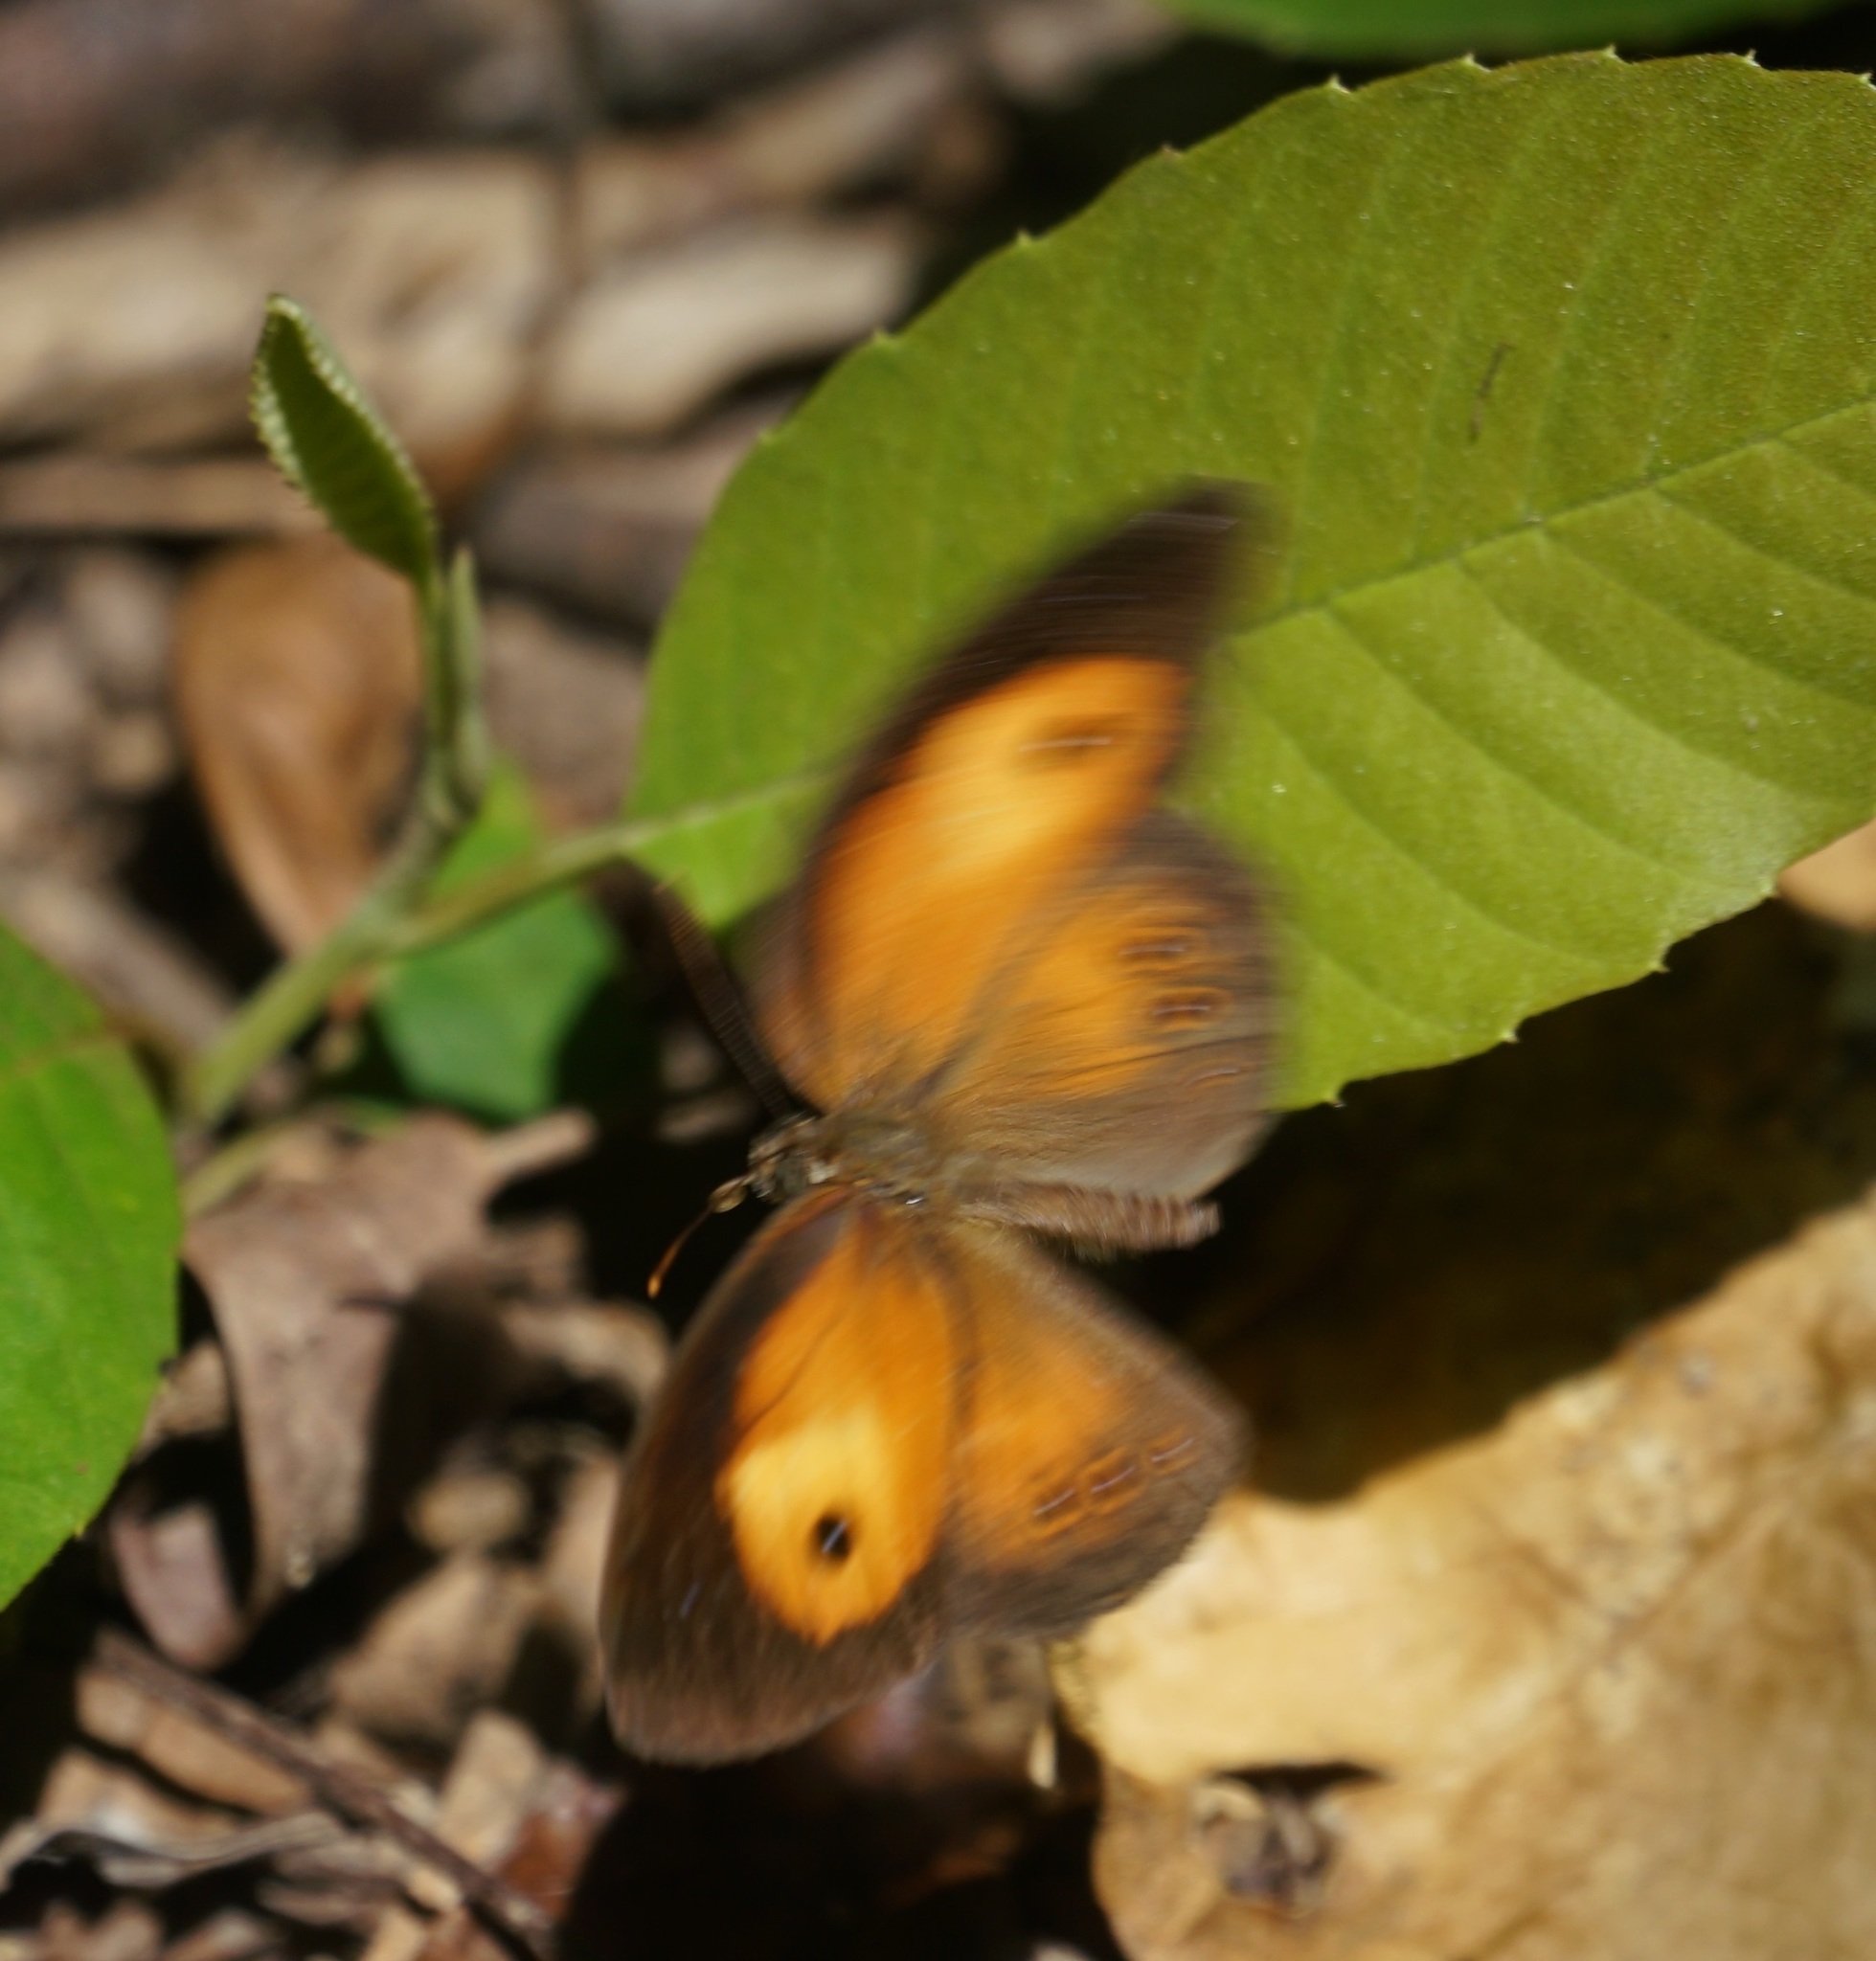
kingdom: Animalia
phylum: Arthropoda
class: Insecta
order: Lepidoptera
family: Nymphalidae
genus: Mycalesis
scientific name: Mycalesis terminus
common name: Orange bushbrown
